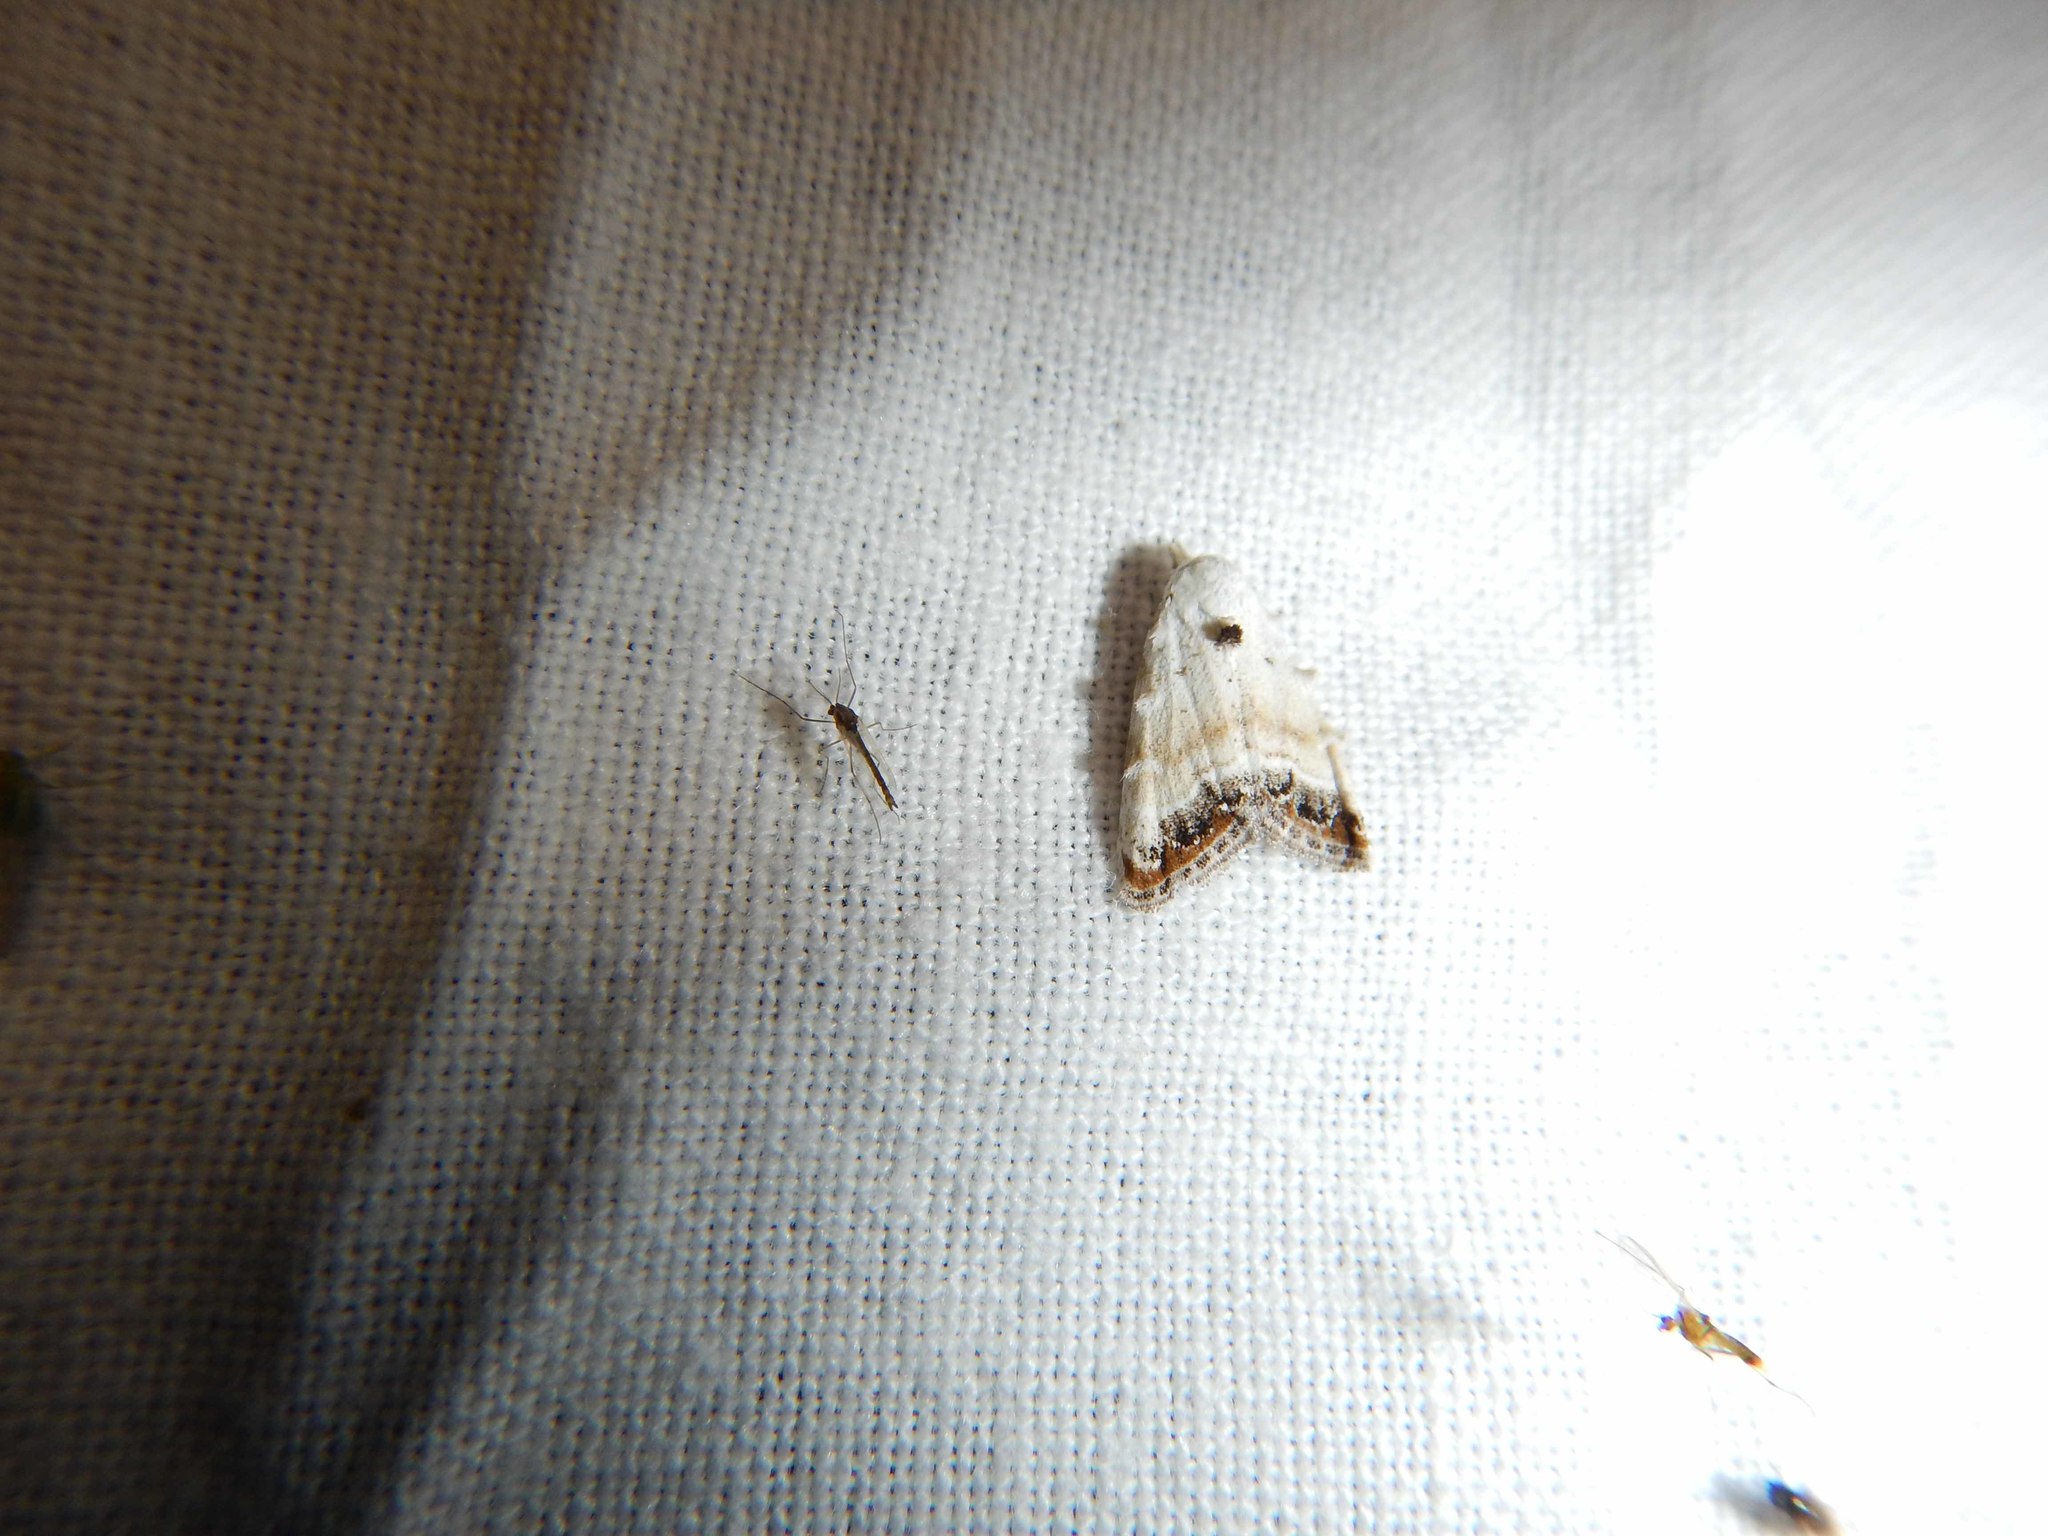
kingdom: Animalia
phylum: Arthropoda
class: Insecta
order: Lepidoptera
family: Nolidae
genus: Nola
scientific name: Nola infantula
